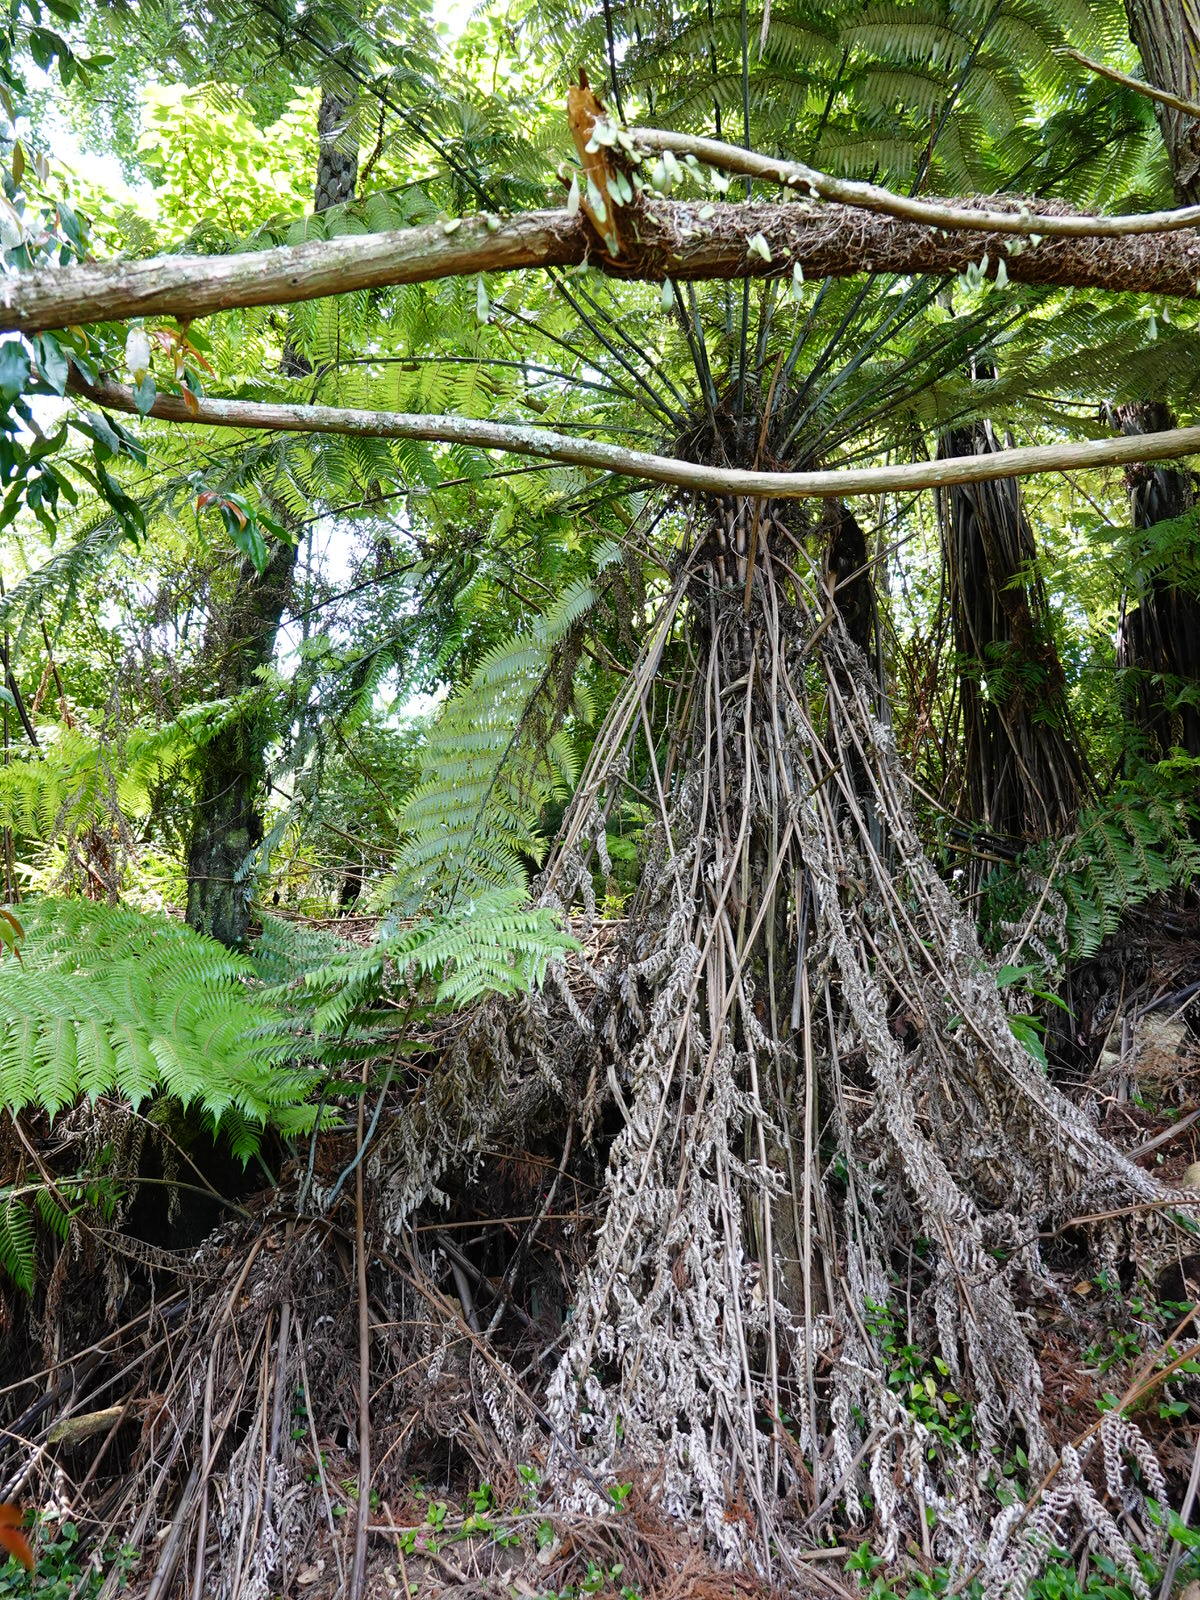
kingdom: Plantae
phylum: Tracheophyta
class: Polypodiopsida
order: Cyatheales
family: Cyatheaceae
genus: Alsophila
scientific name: Alsophila dealbata
